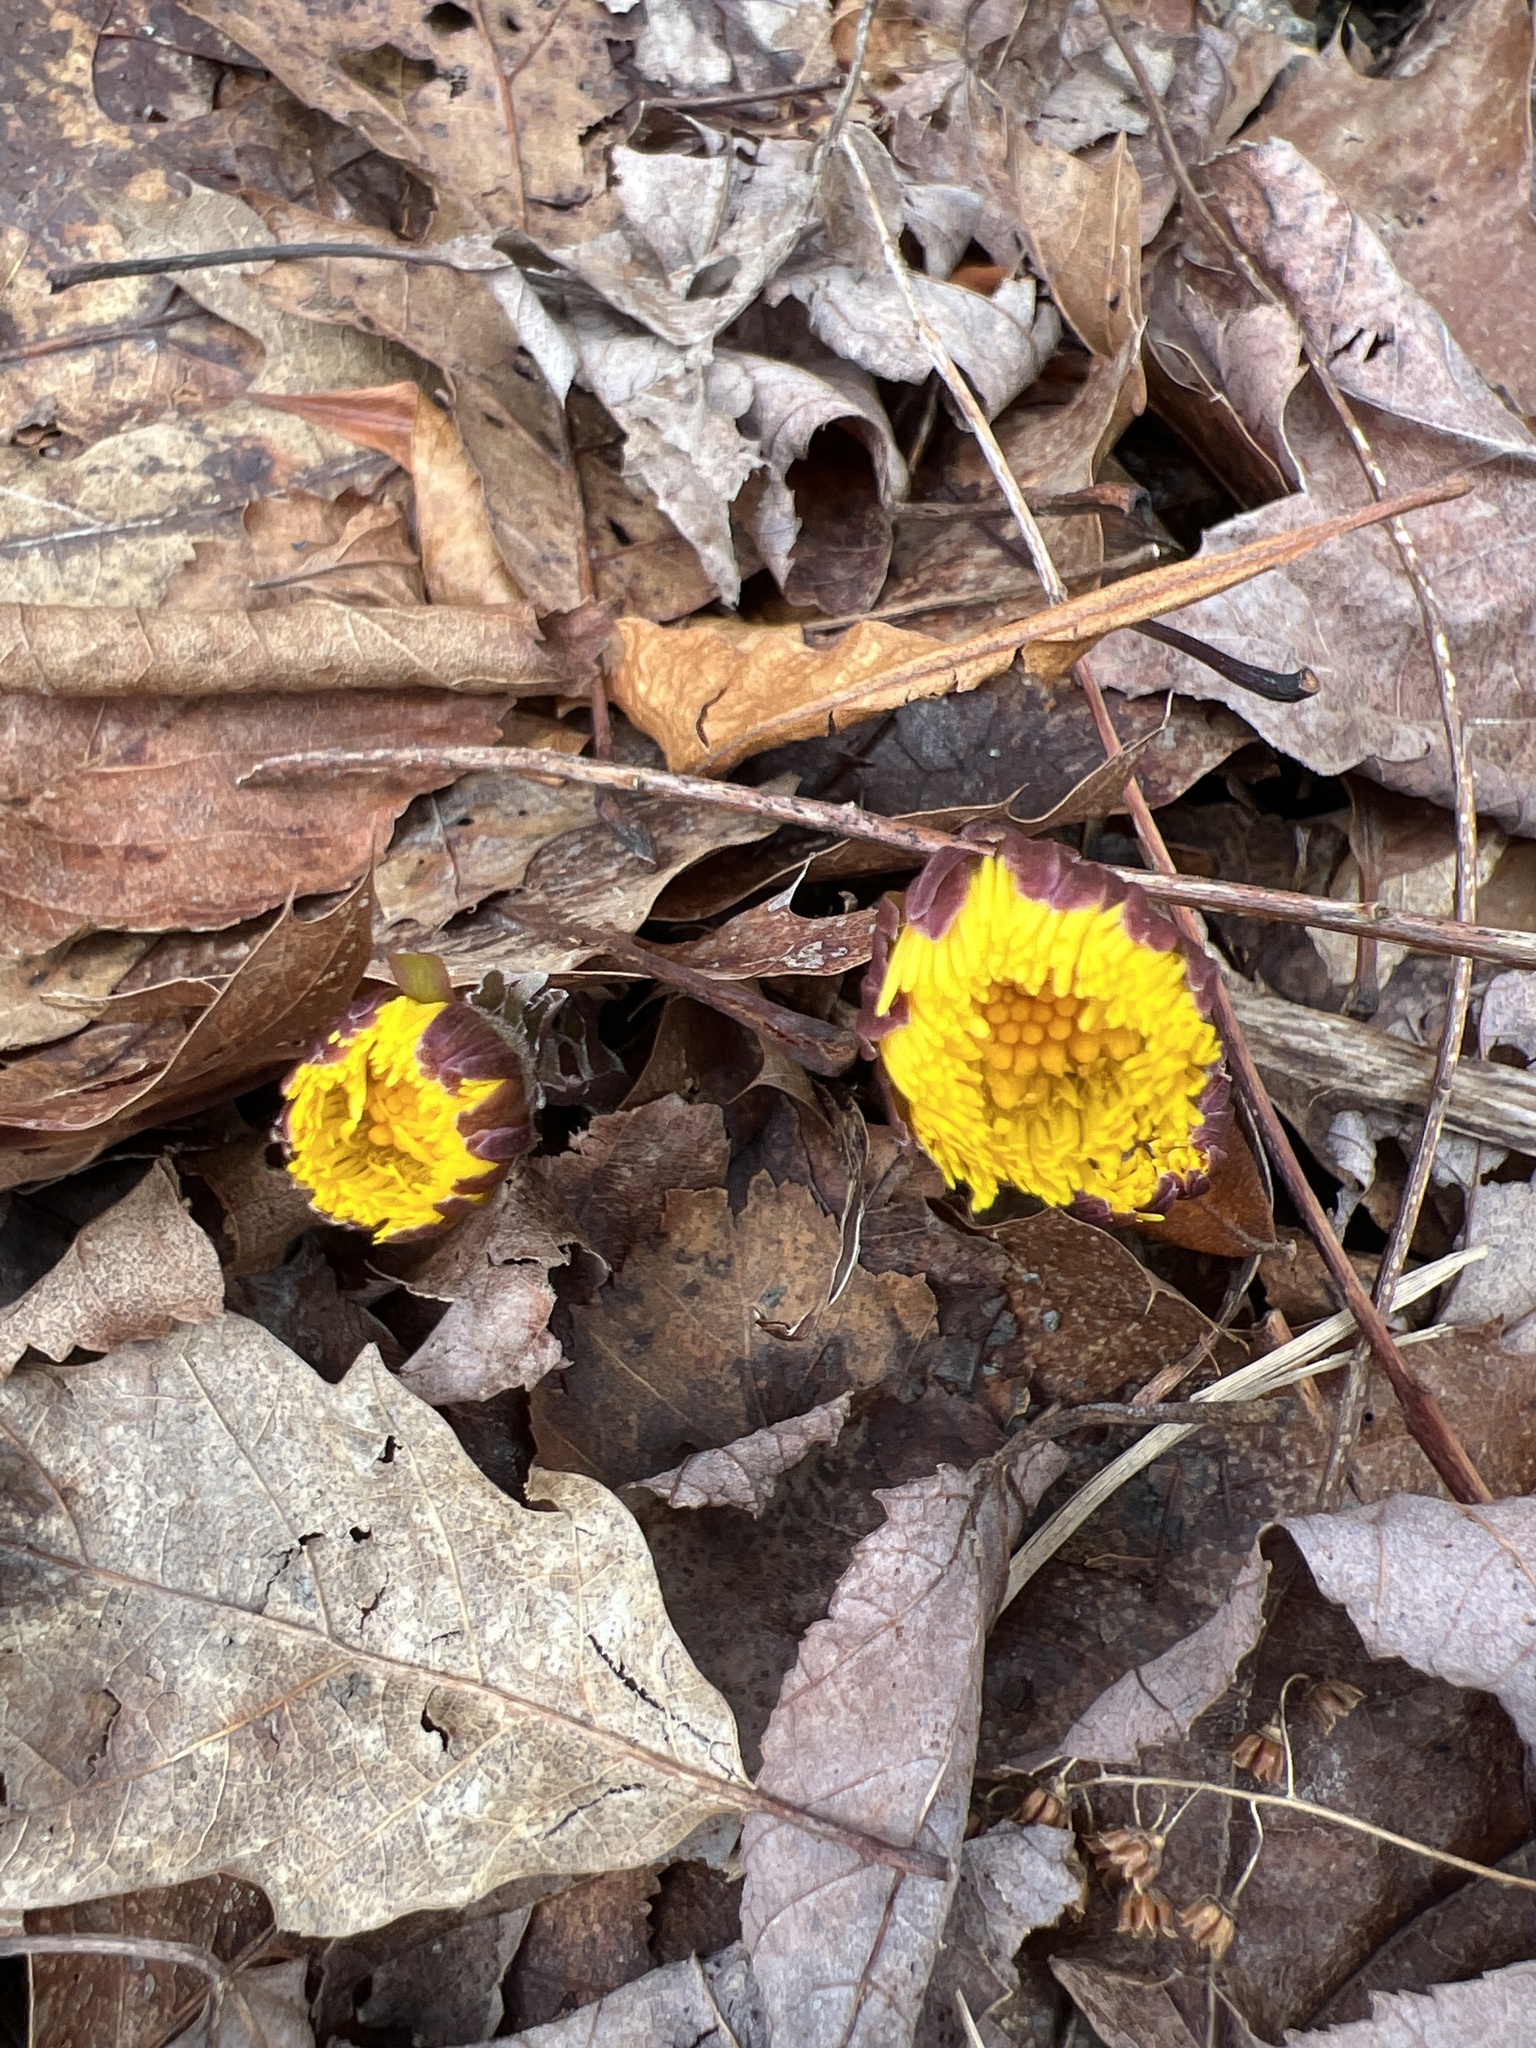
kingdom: Plantae
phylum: Tracheophyta
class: Magnoliopsida
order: Asterales
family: Asteraceae
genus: Tussilago
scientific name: Tussilago farfara
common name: Coltsfoot
